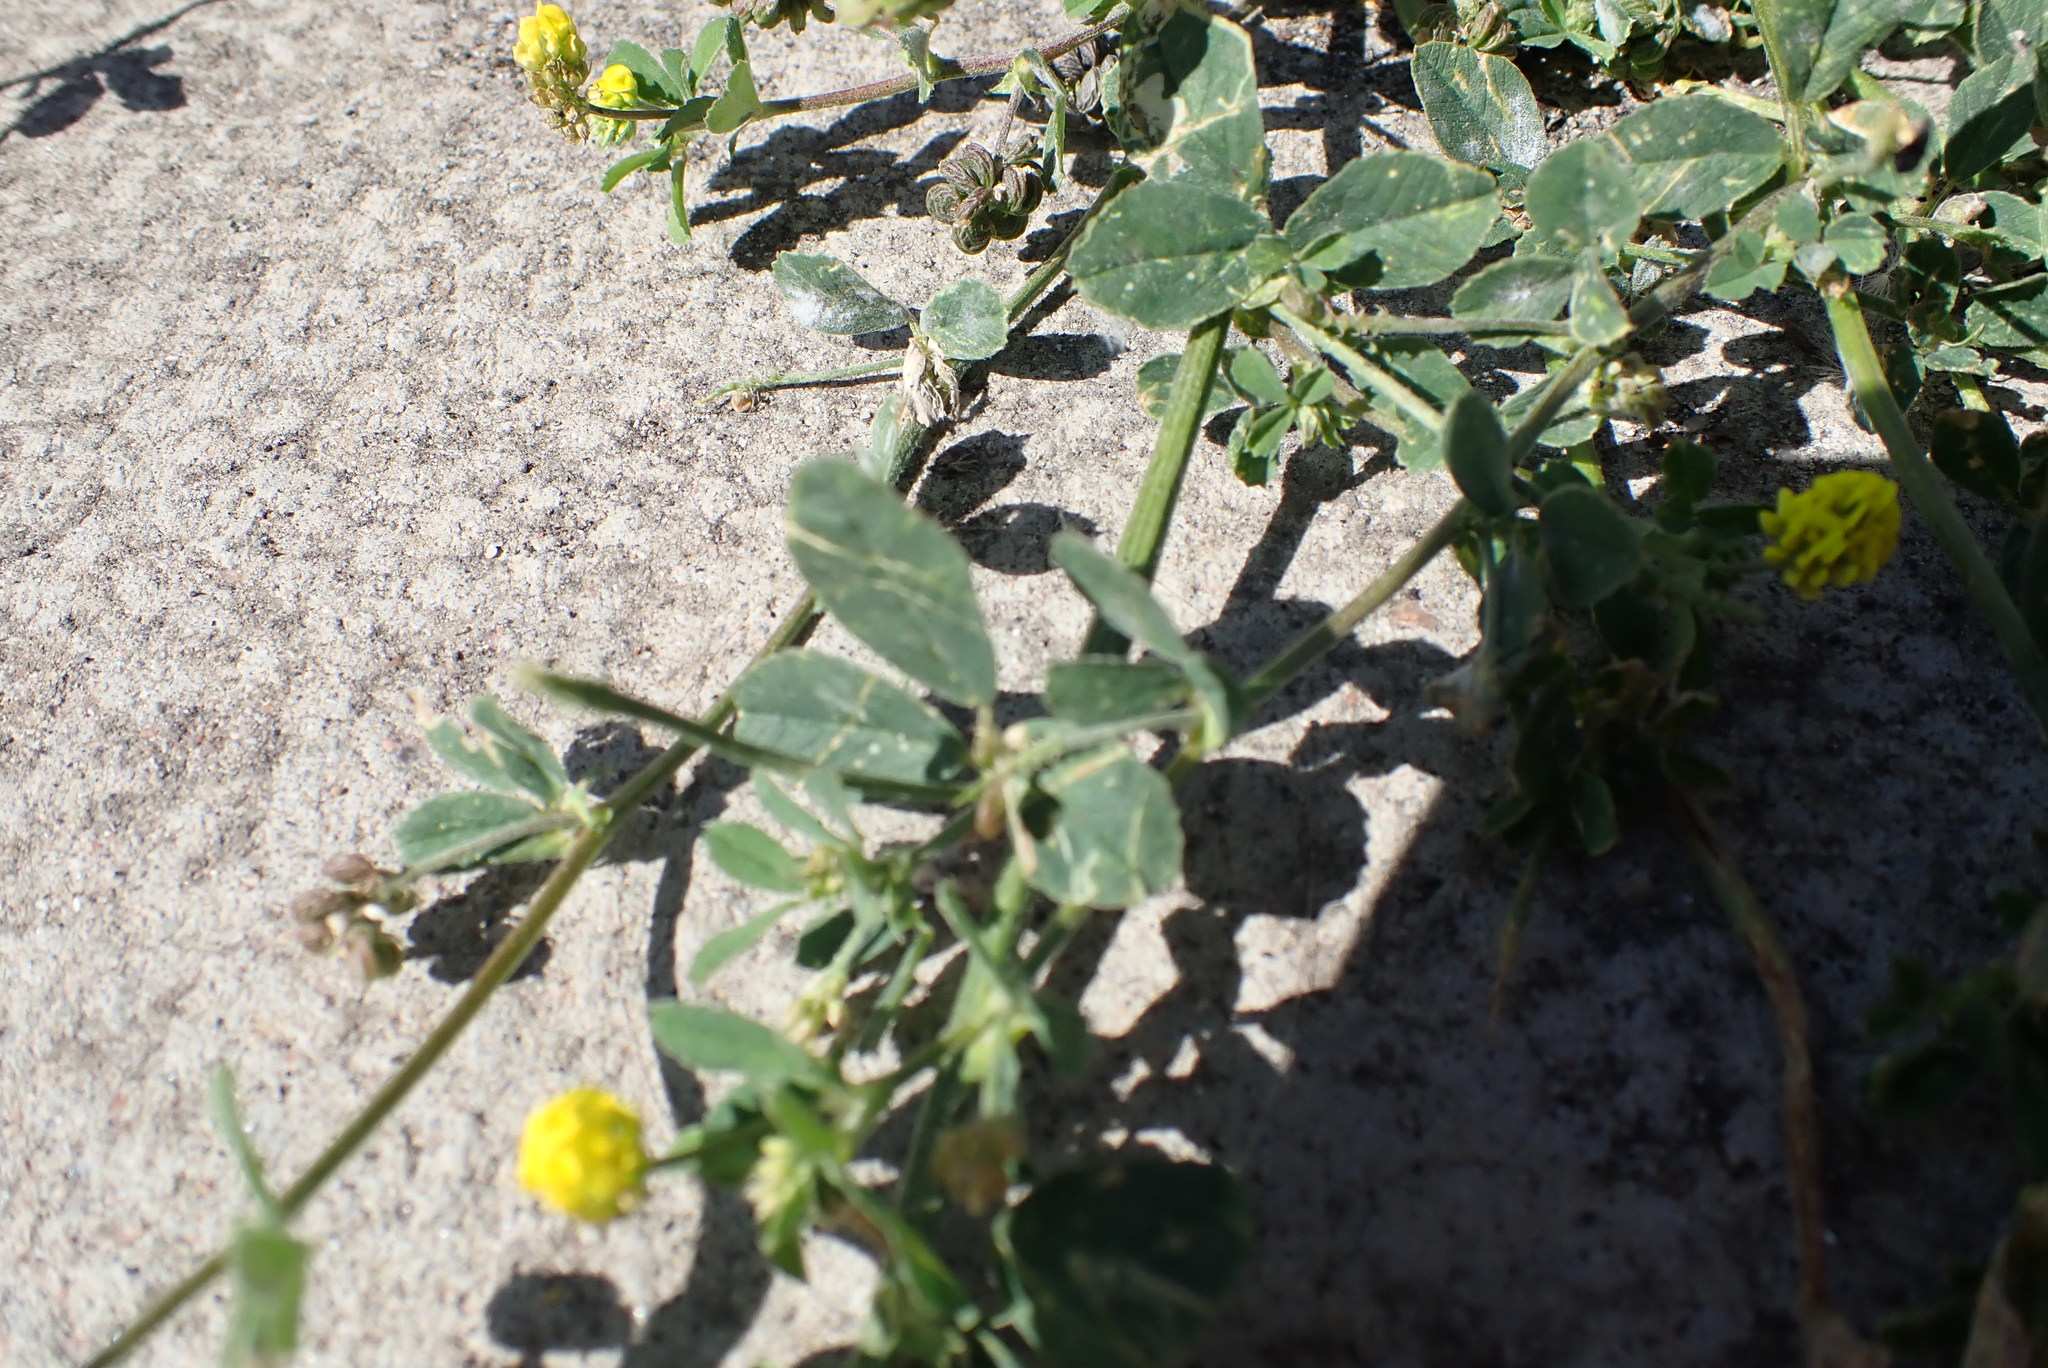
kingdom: Plantae
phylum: Tracheophyta
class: Magnoliopsida
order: Fabales
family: Fabaceae
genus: Medicago
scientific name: Medicago lupulina
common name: Black medick
